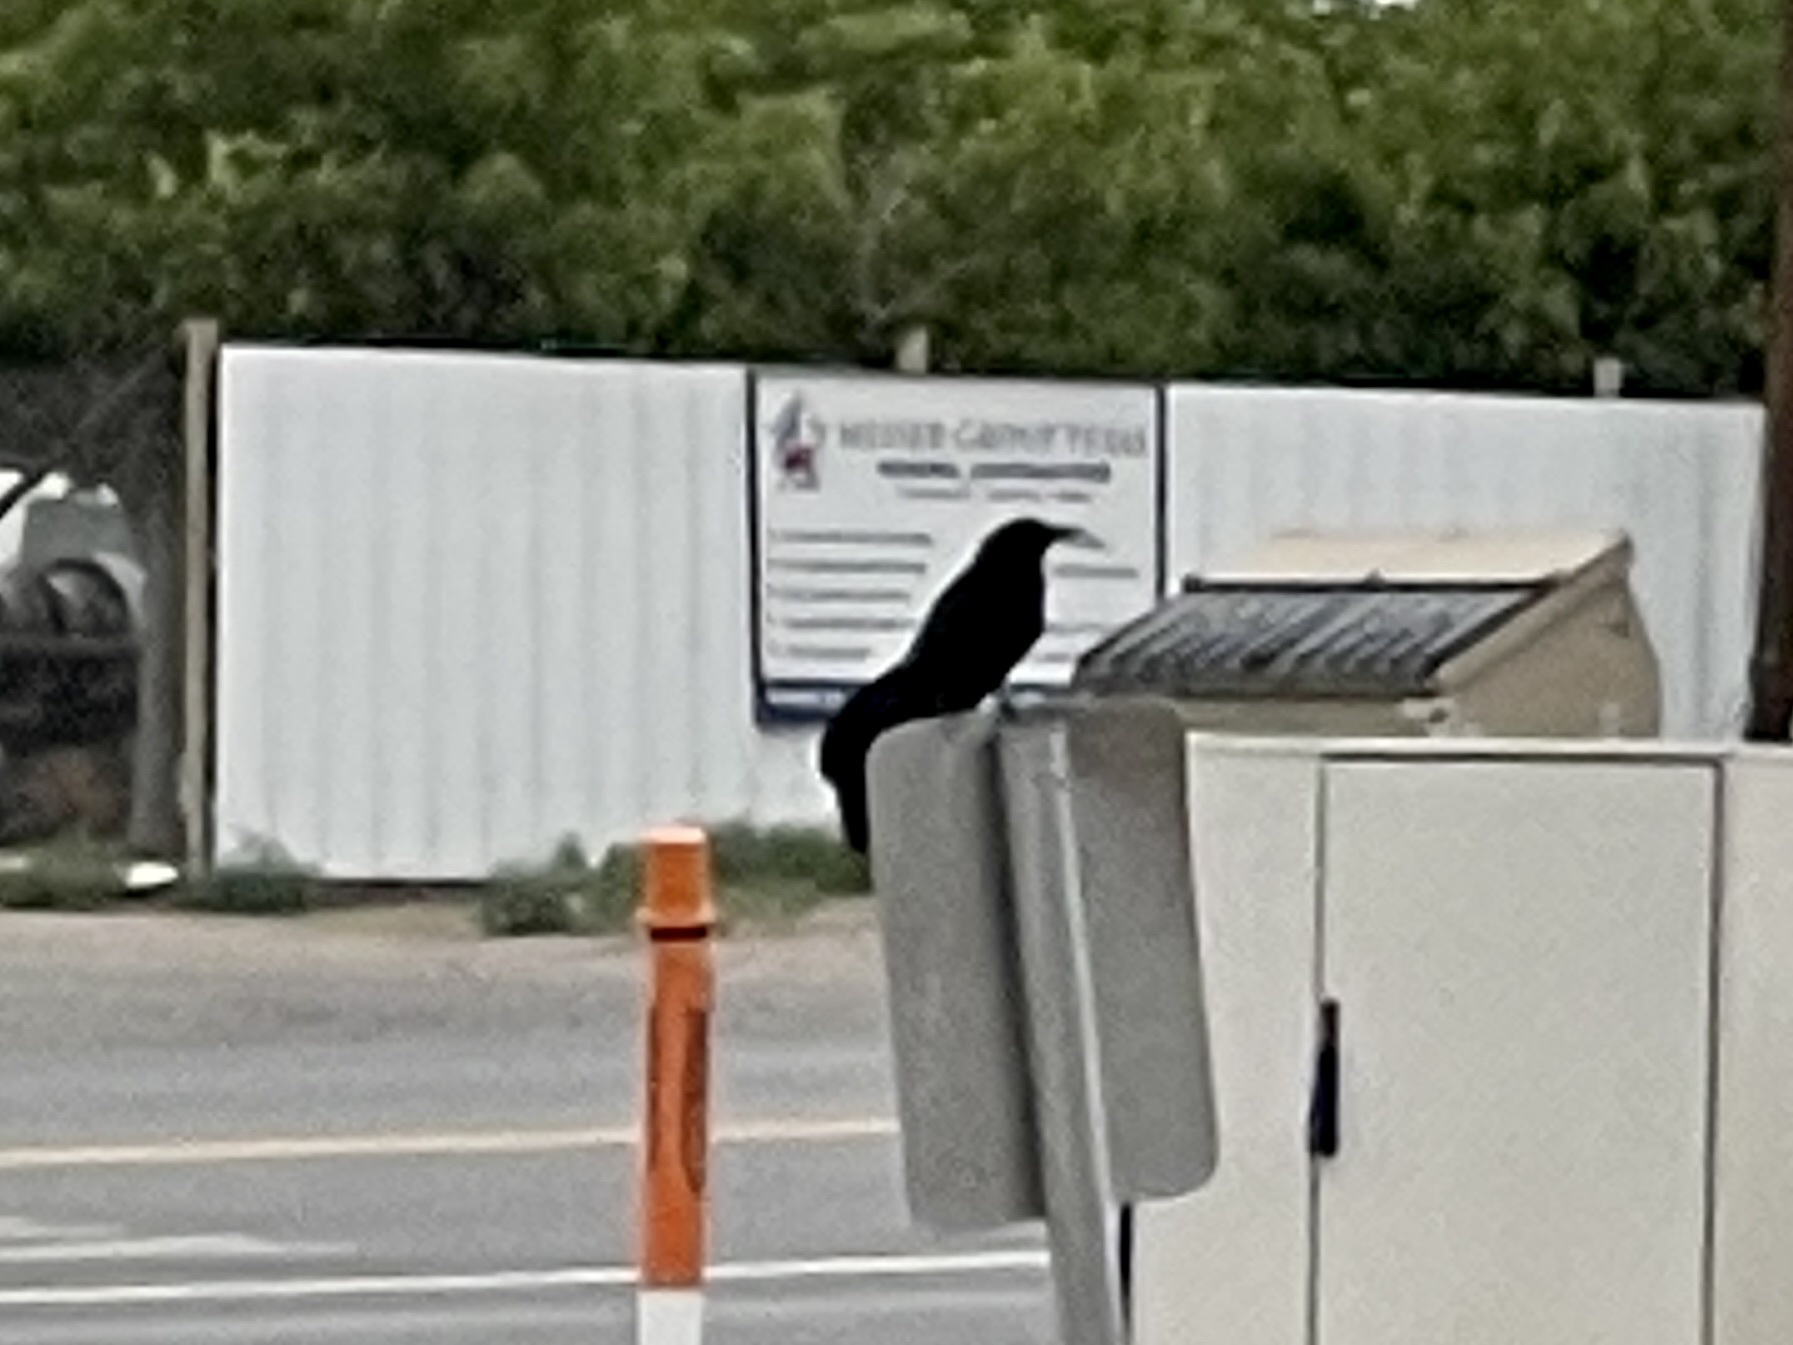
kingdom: Animalia
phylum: Chordata
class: Aves
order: Passeriformes
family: Icteridae
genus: Quiscalus
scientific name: Quiscalus mexicanus
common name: Great-tailed grackle
